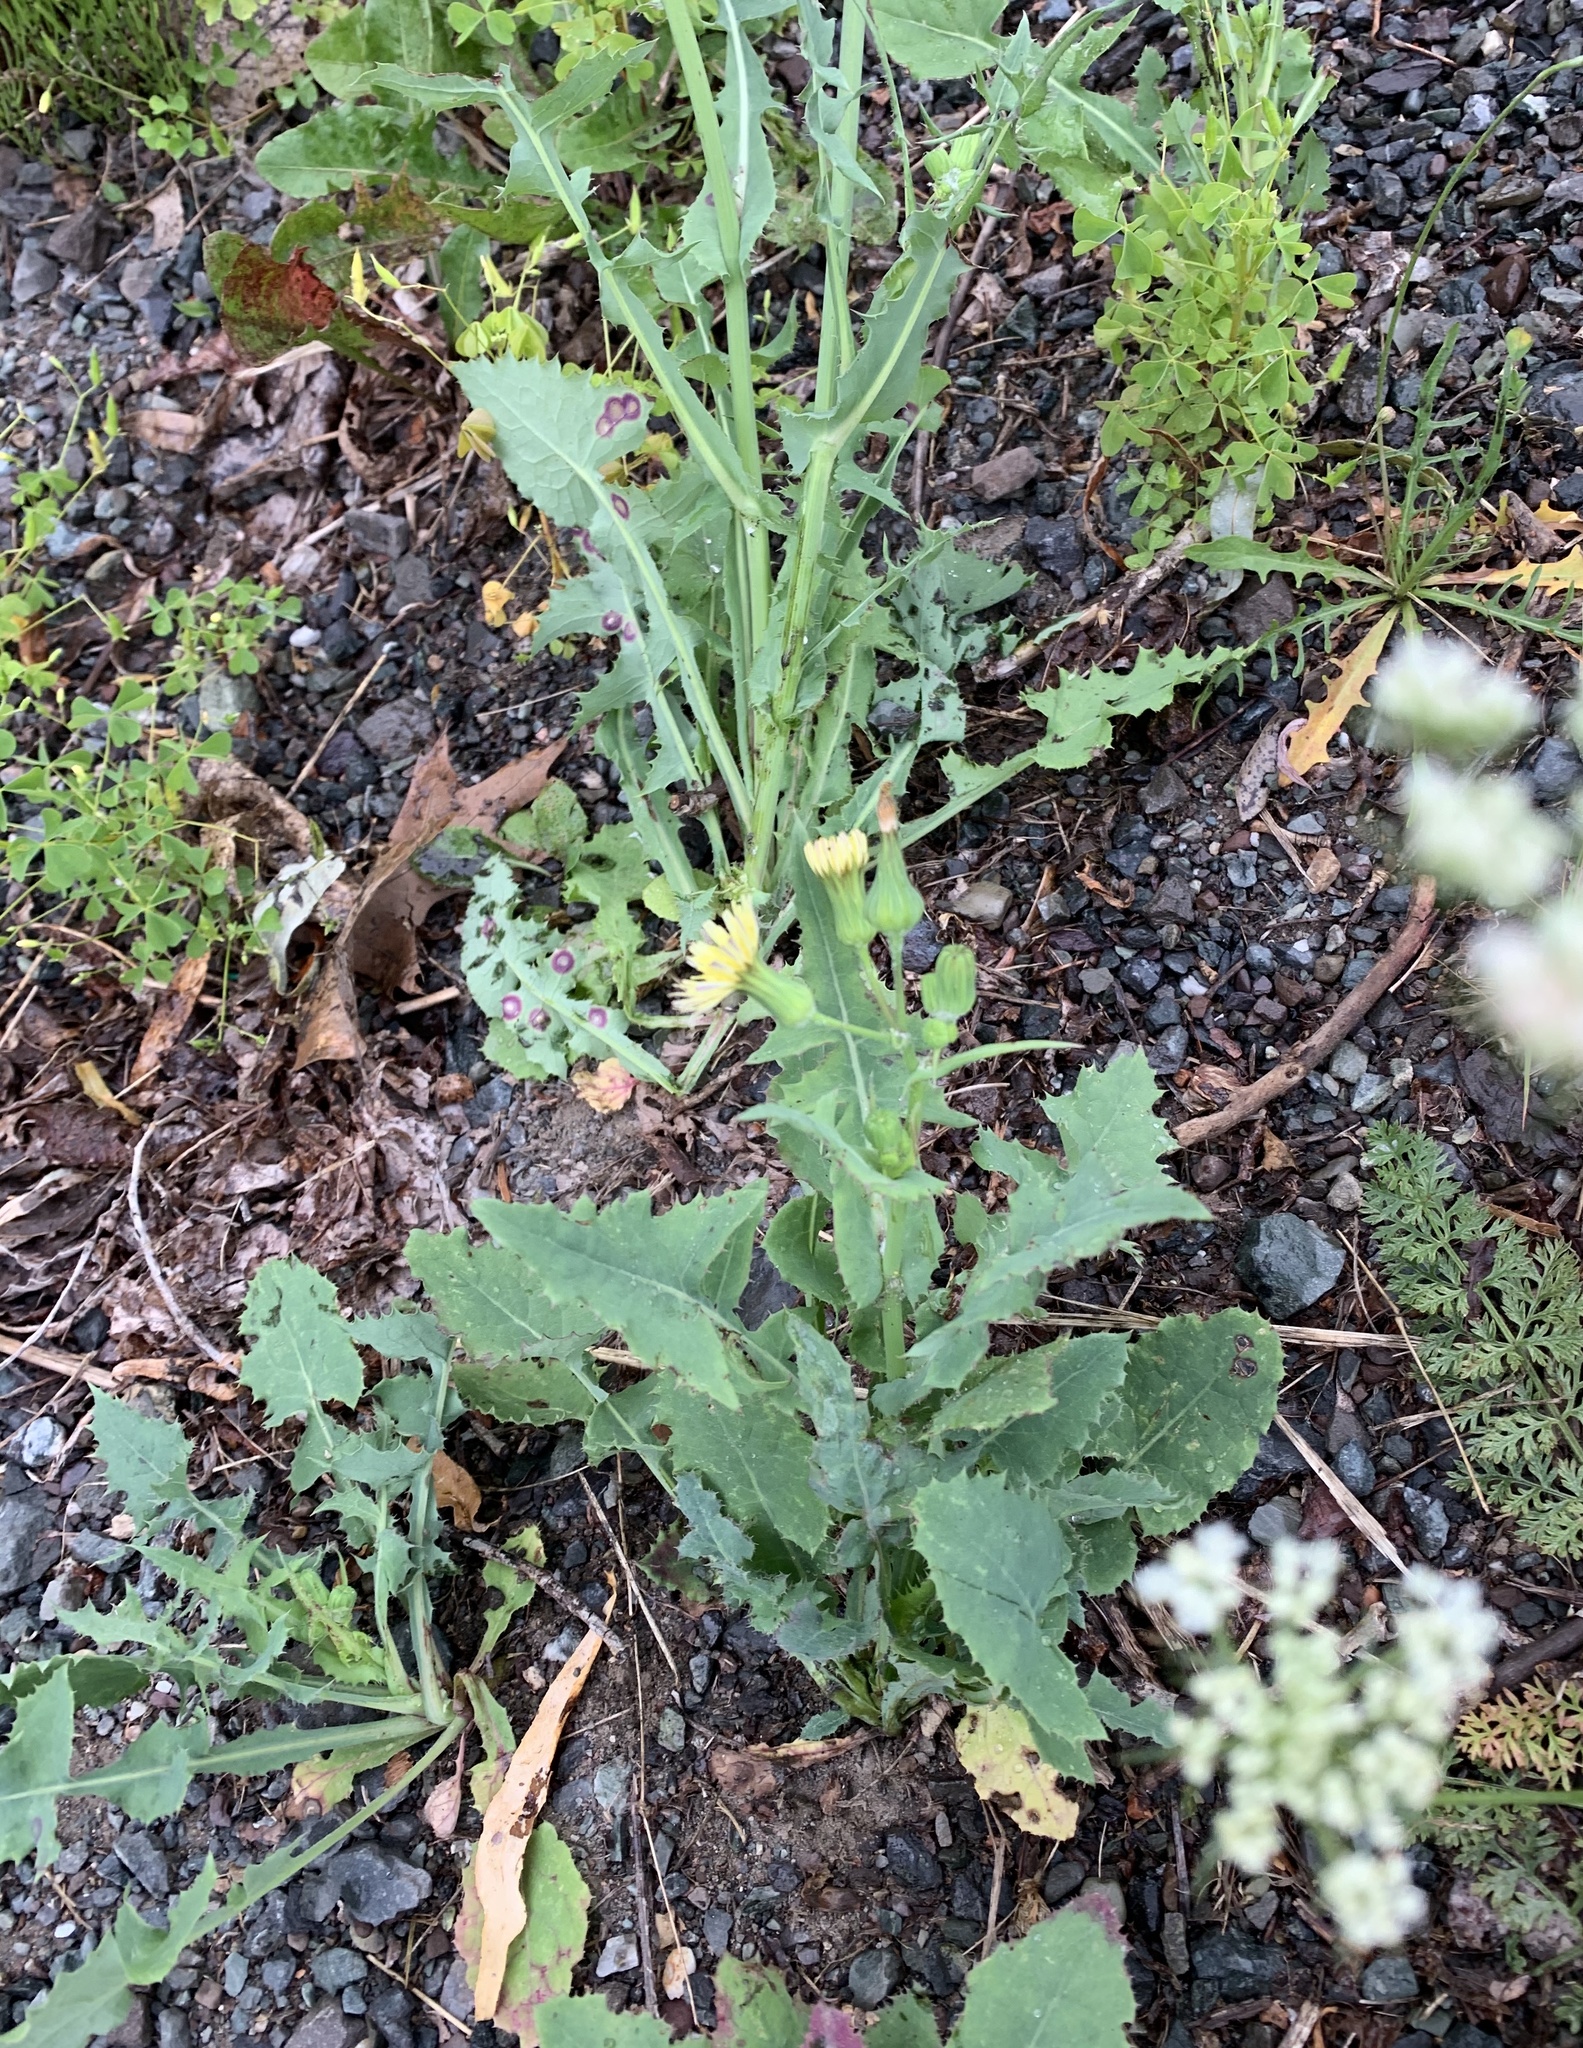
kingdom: Plantae
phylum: Tracheophyta
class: Magnoliopsida
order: Asterales
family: Asteraceae
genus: Sonchus
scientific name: Sonchus oleraceus
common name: Common sowthistle
